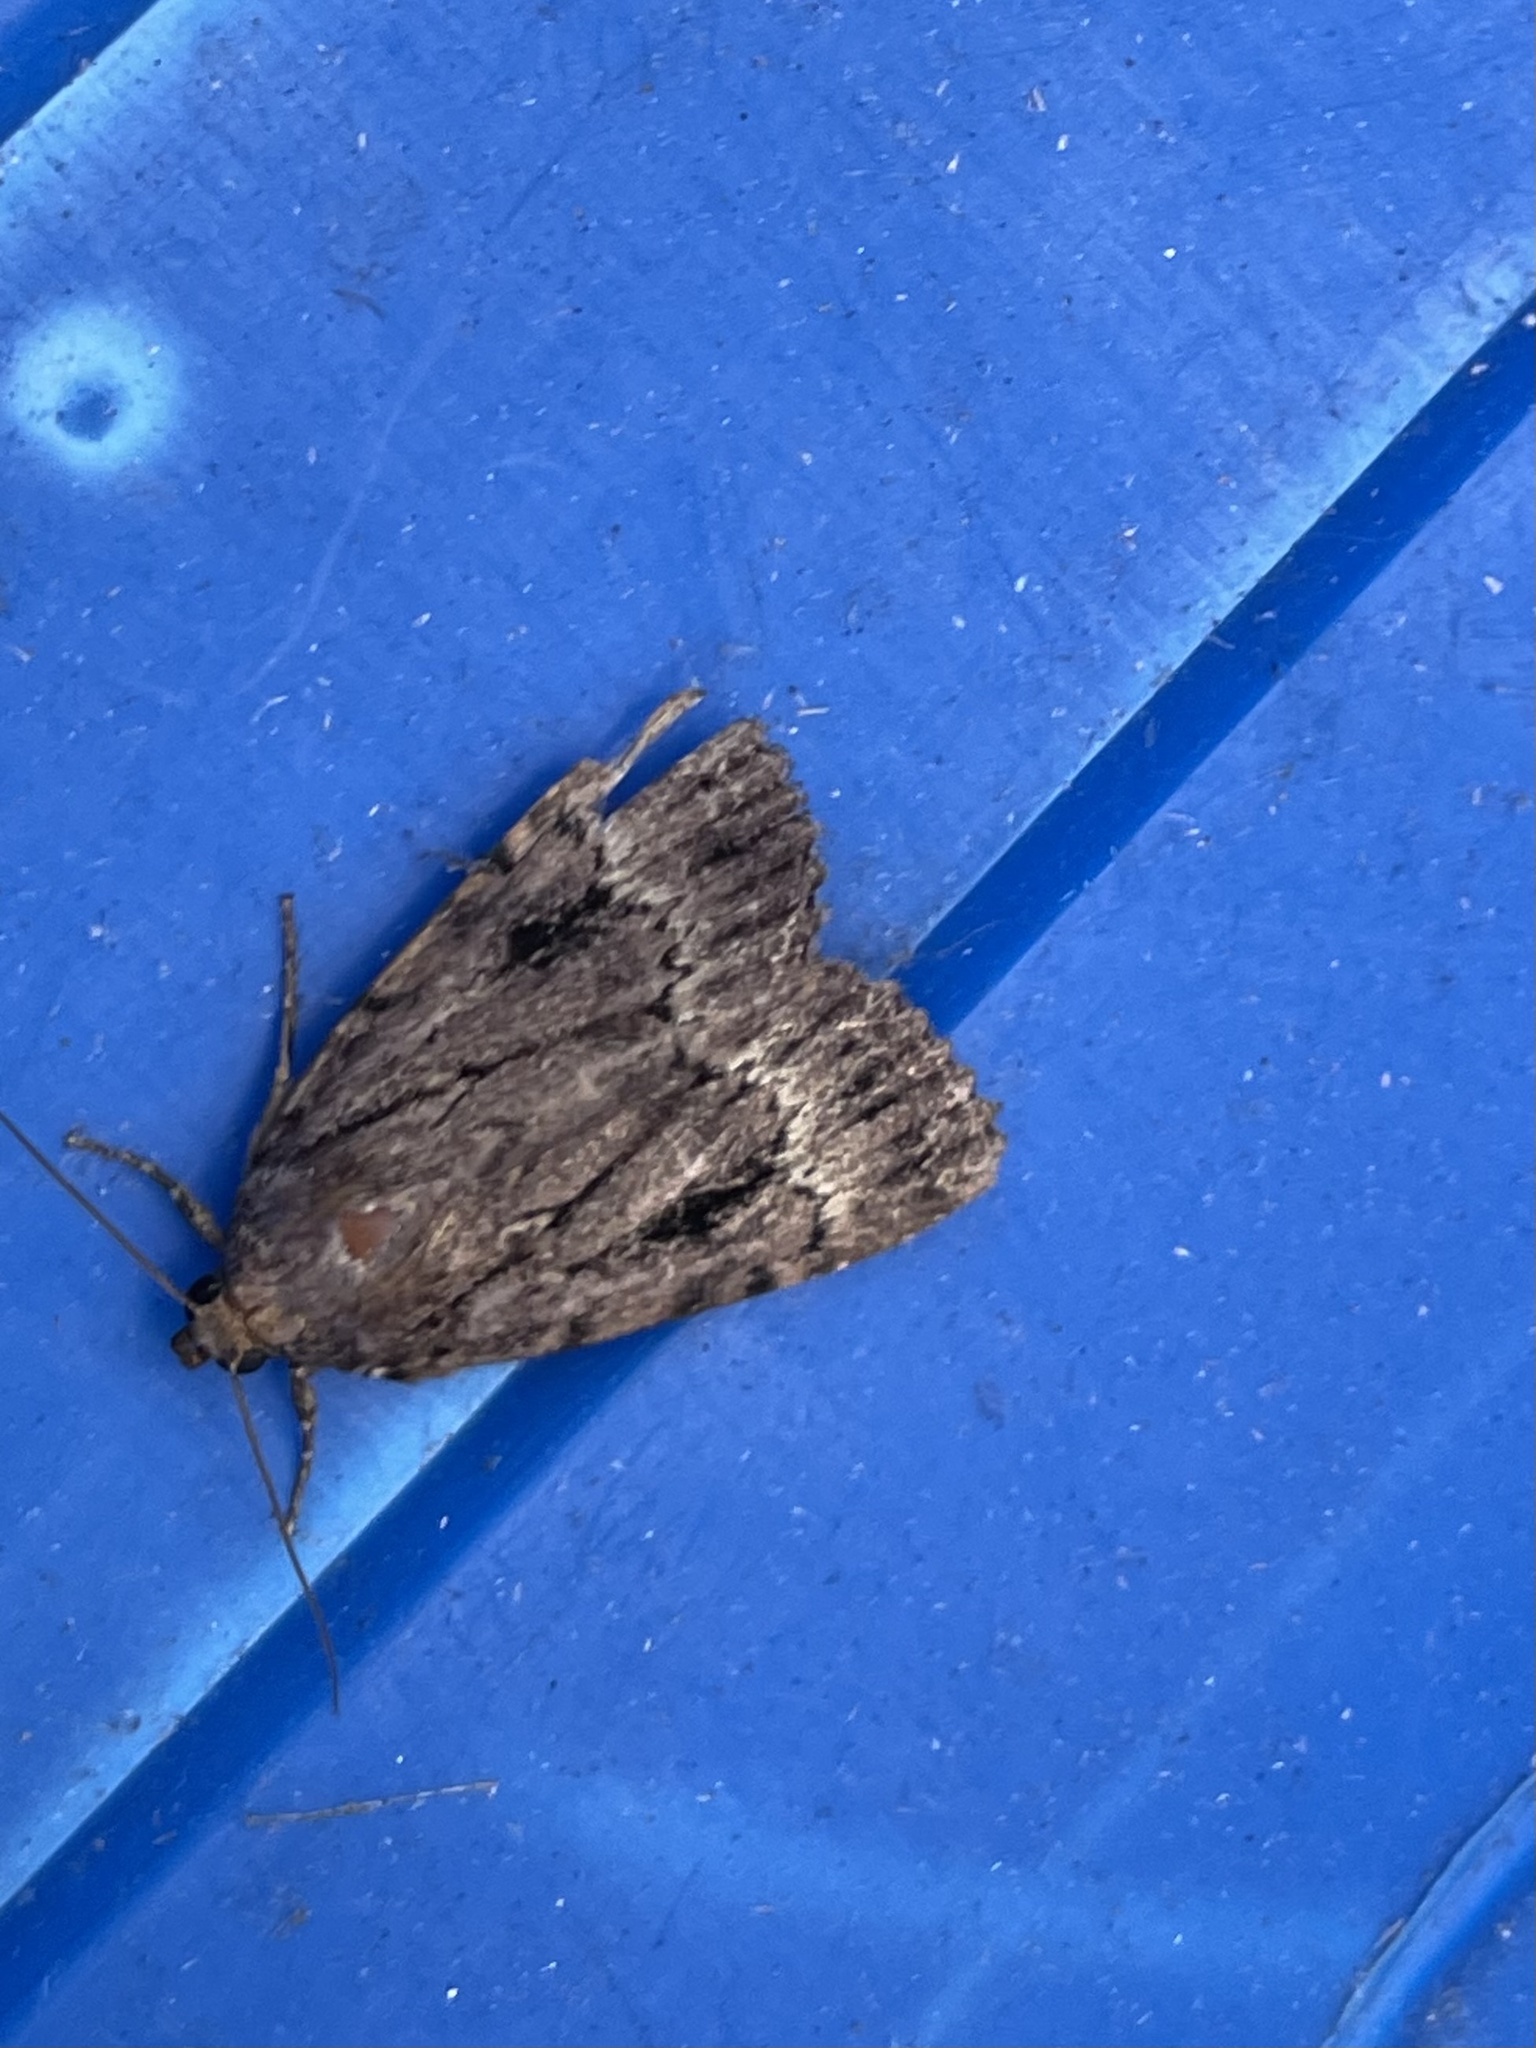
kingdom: Animalia
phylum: Arthropoda
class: Insecta
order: Lepidoptera
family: Noctuidae
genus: Amphipyra
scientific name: Amphipyra pyramidea
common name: Copper underwing
